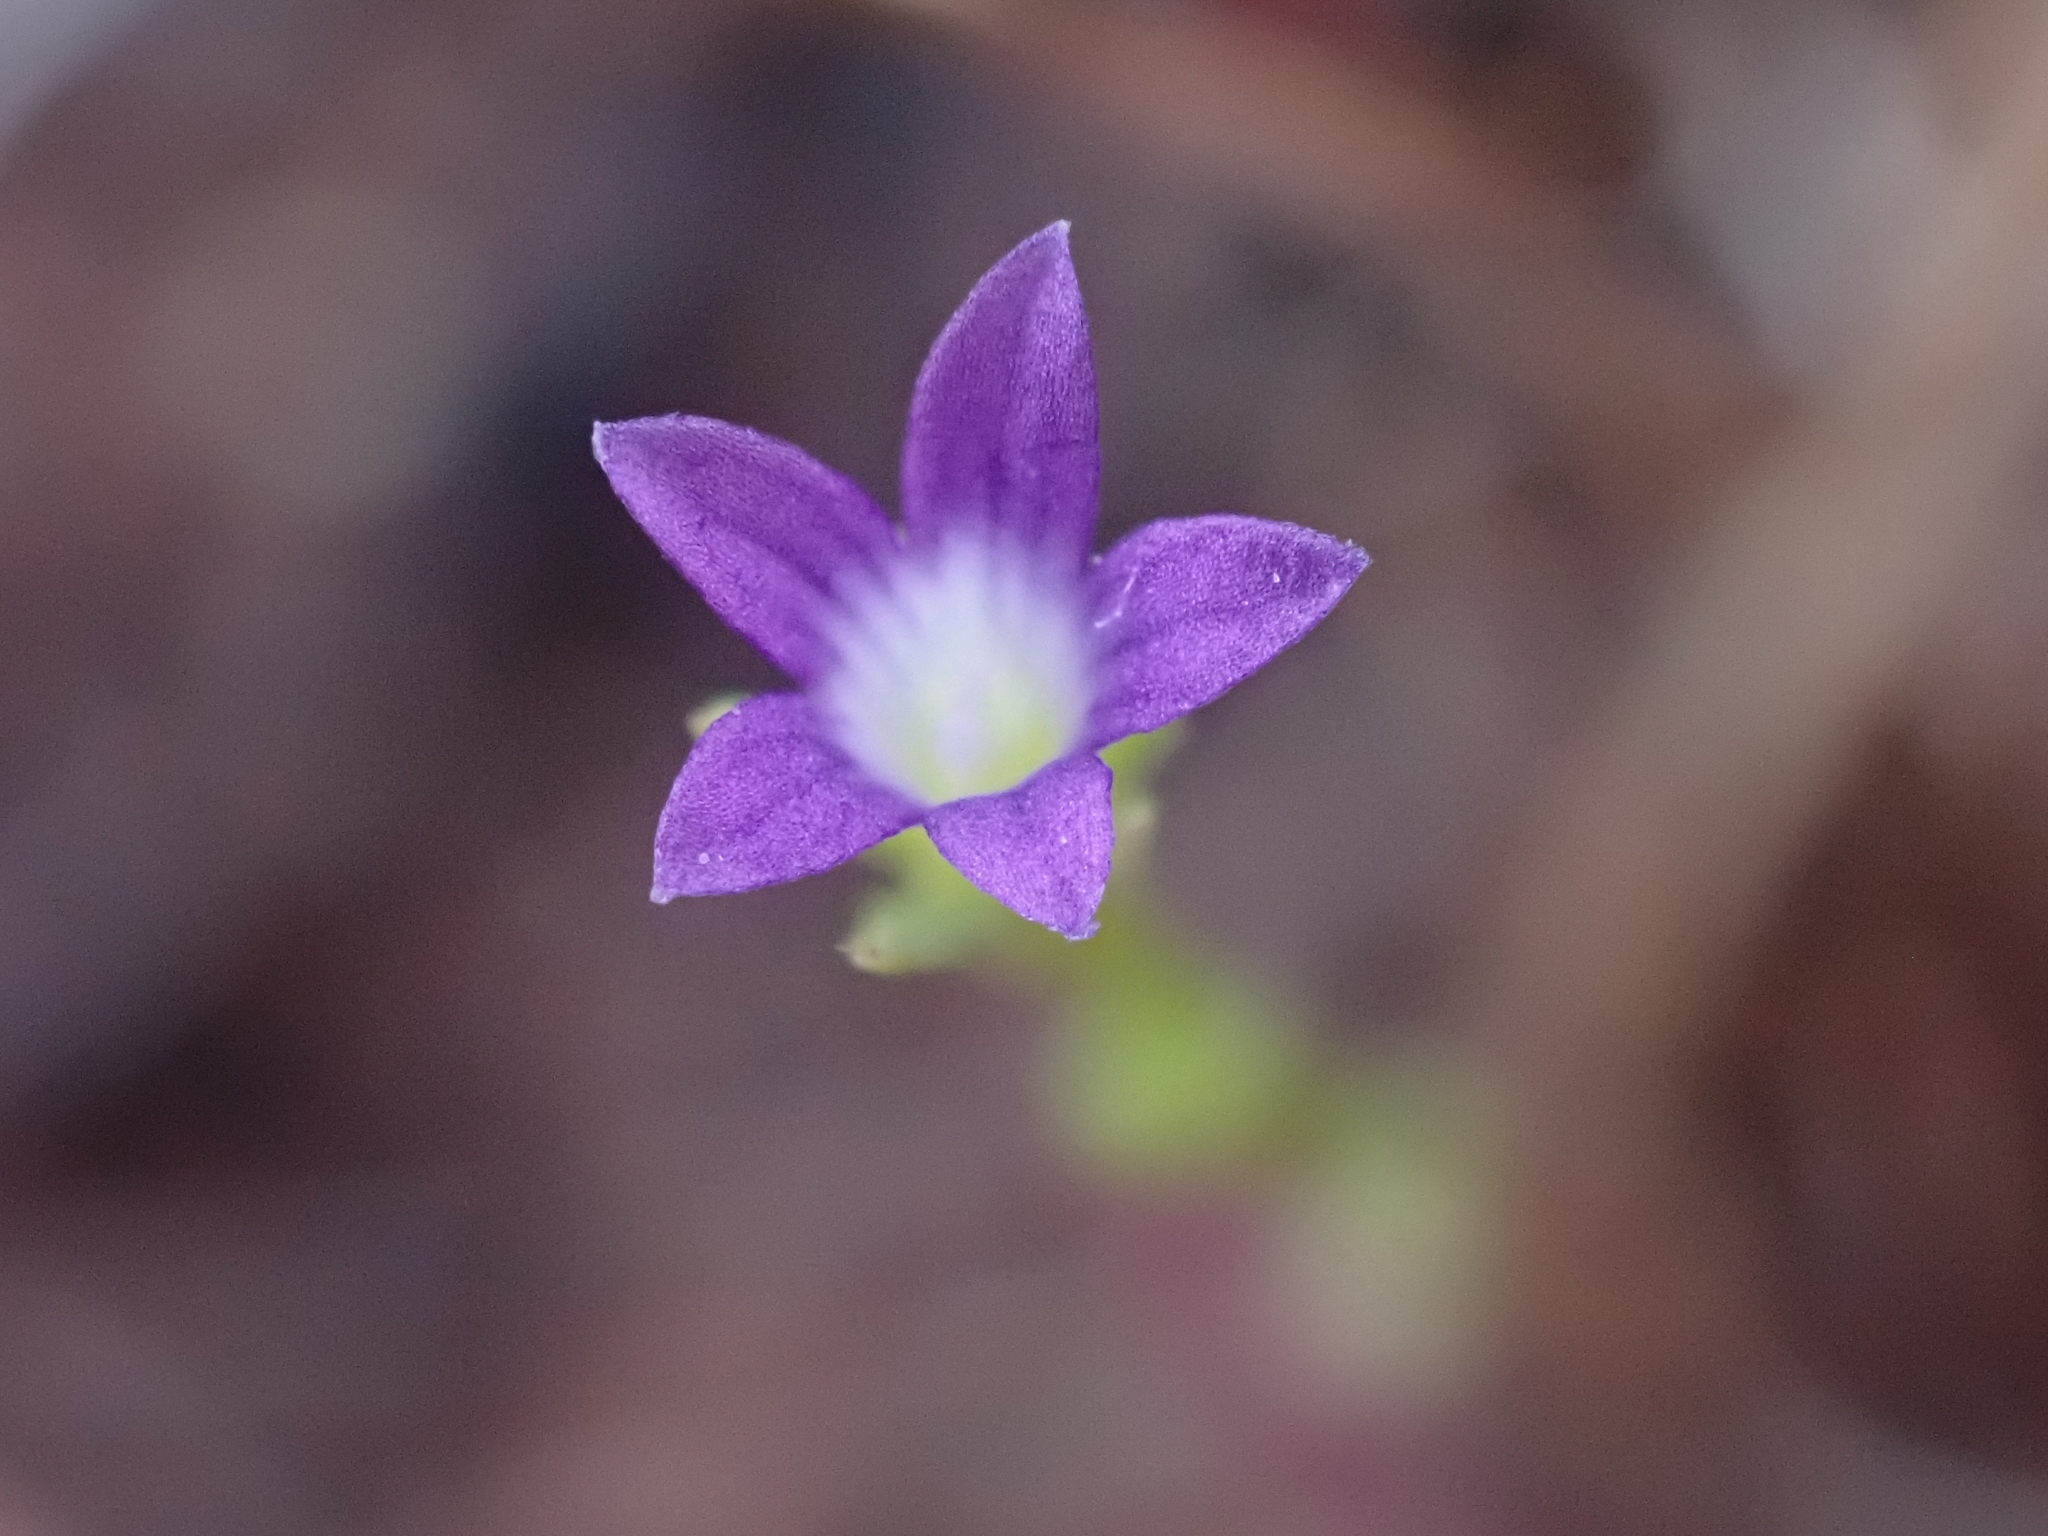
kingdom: Plantae
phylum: Tracheophyta
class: Magnoliopsida
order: Asterales
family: Campanulaceae
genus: Githopsis
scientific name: Githopsis specularioides
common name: Common bluecup
